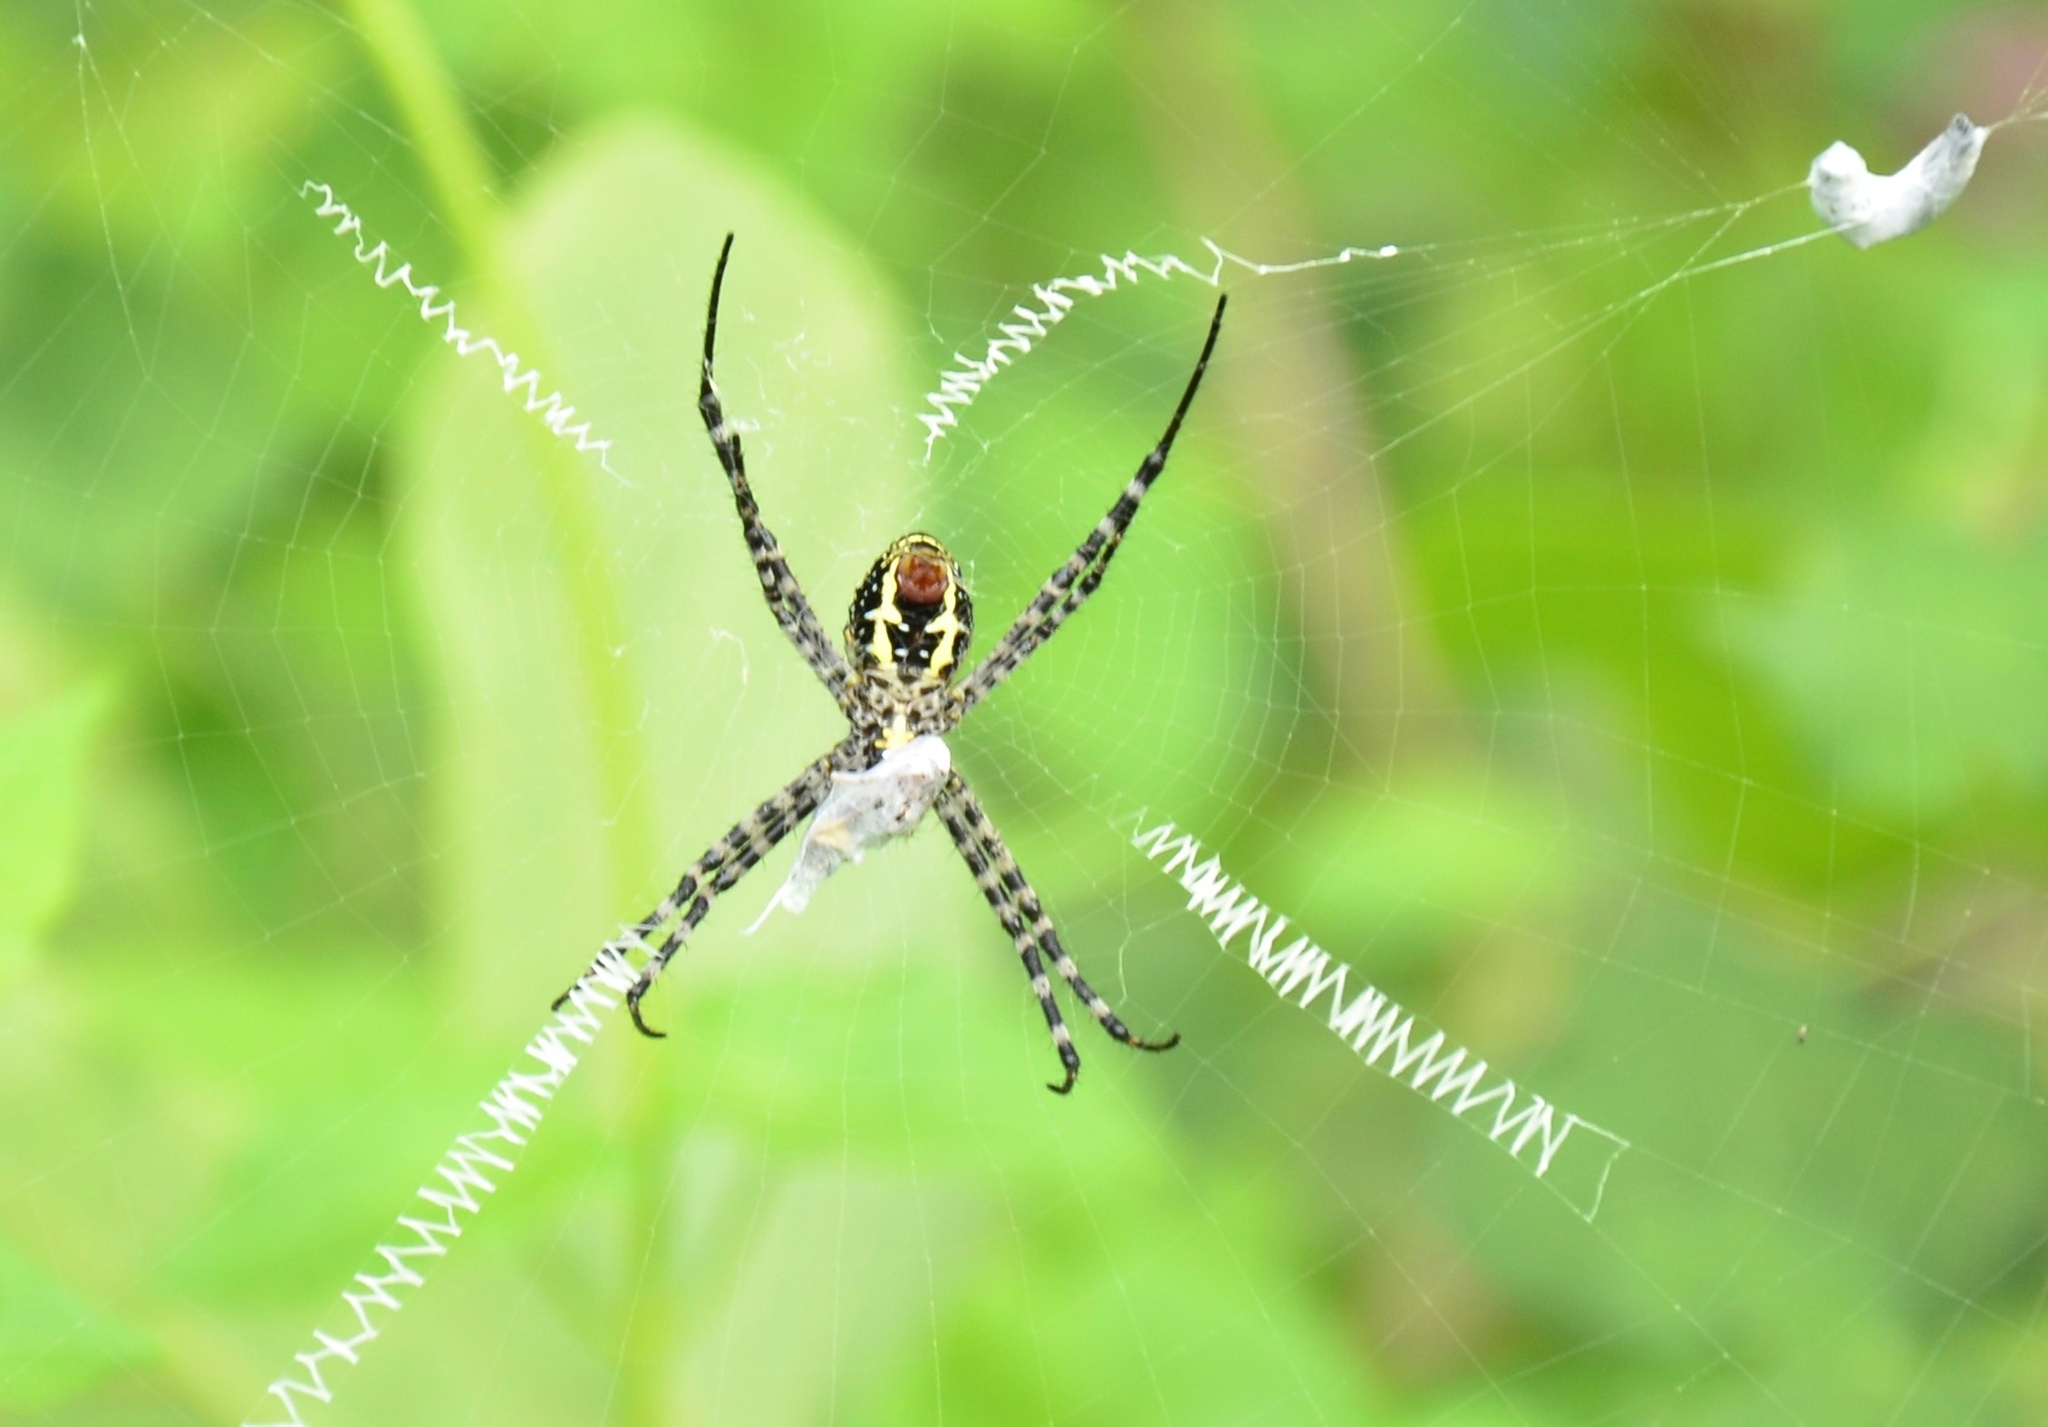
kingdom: Animalia
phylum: Arthropoda
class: Arachnida
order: Araneae
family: Araneidae
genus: Argiope
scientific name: Argiope aemula
